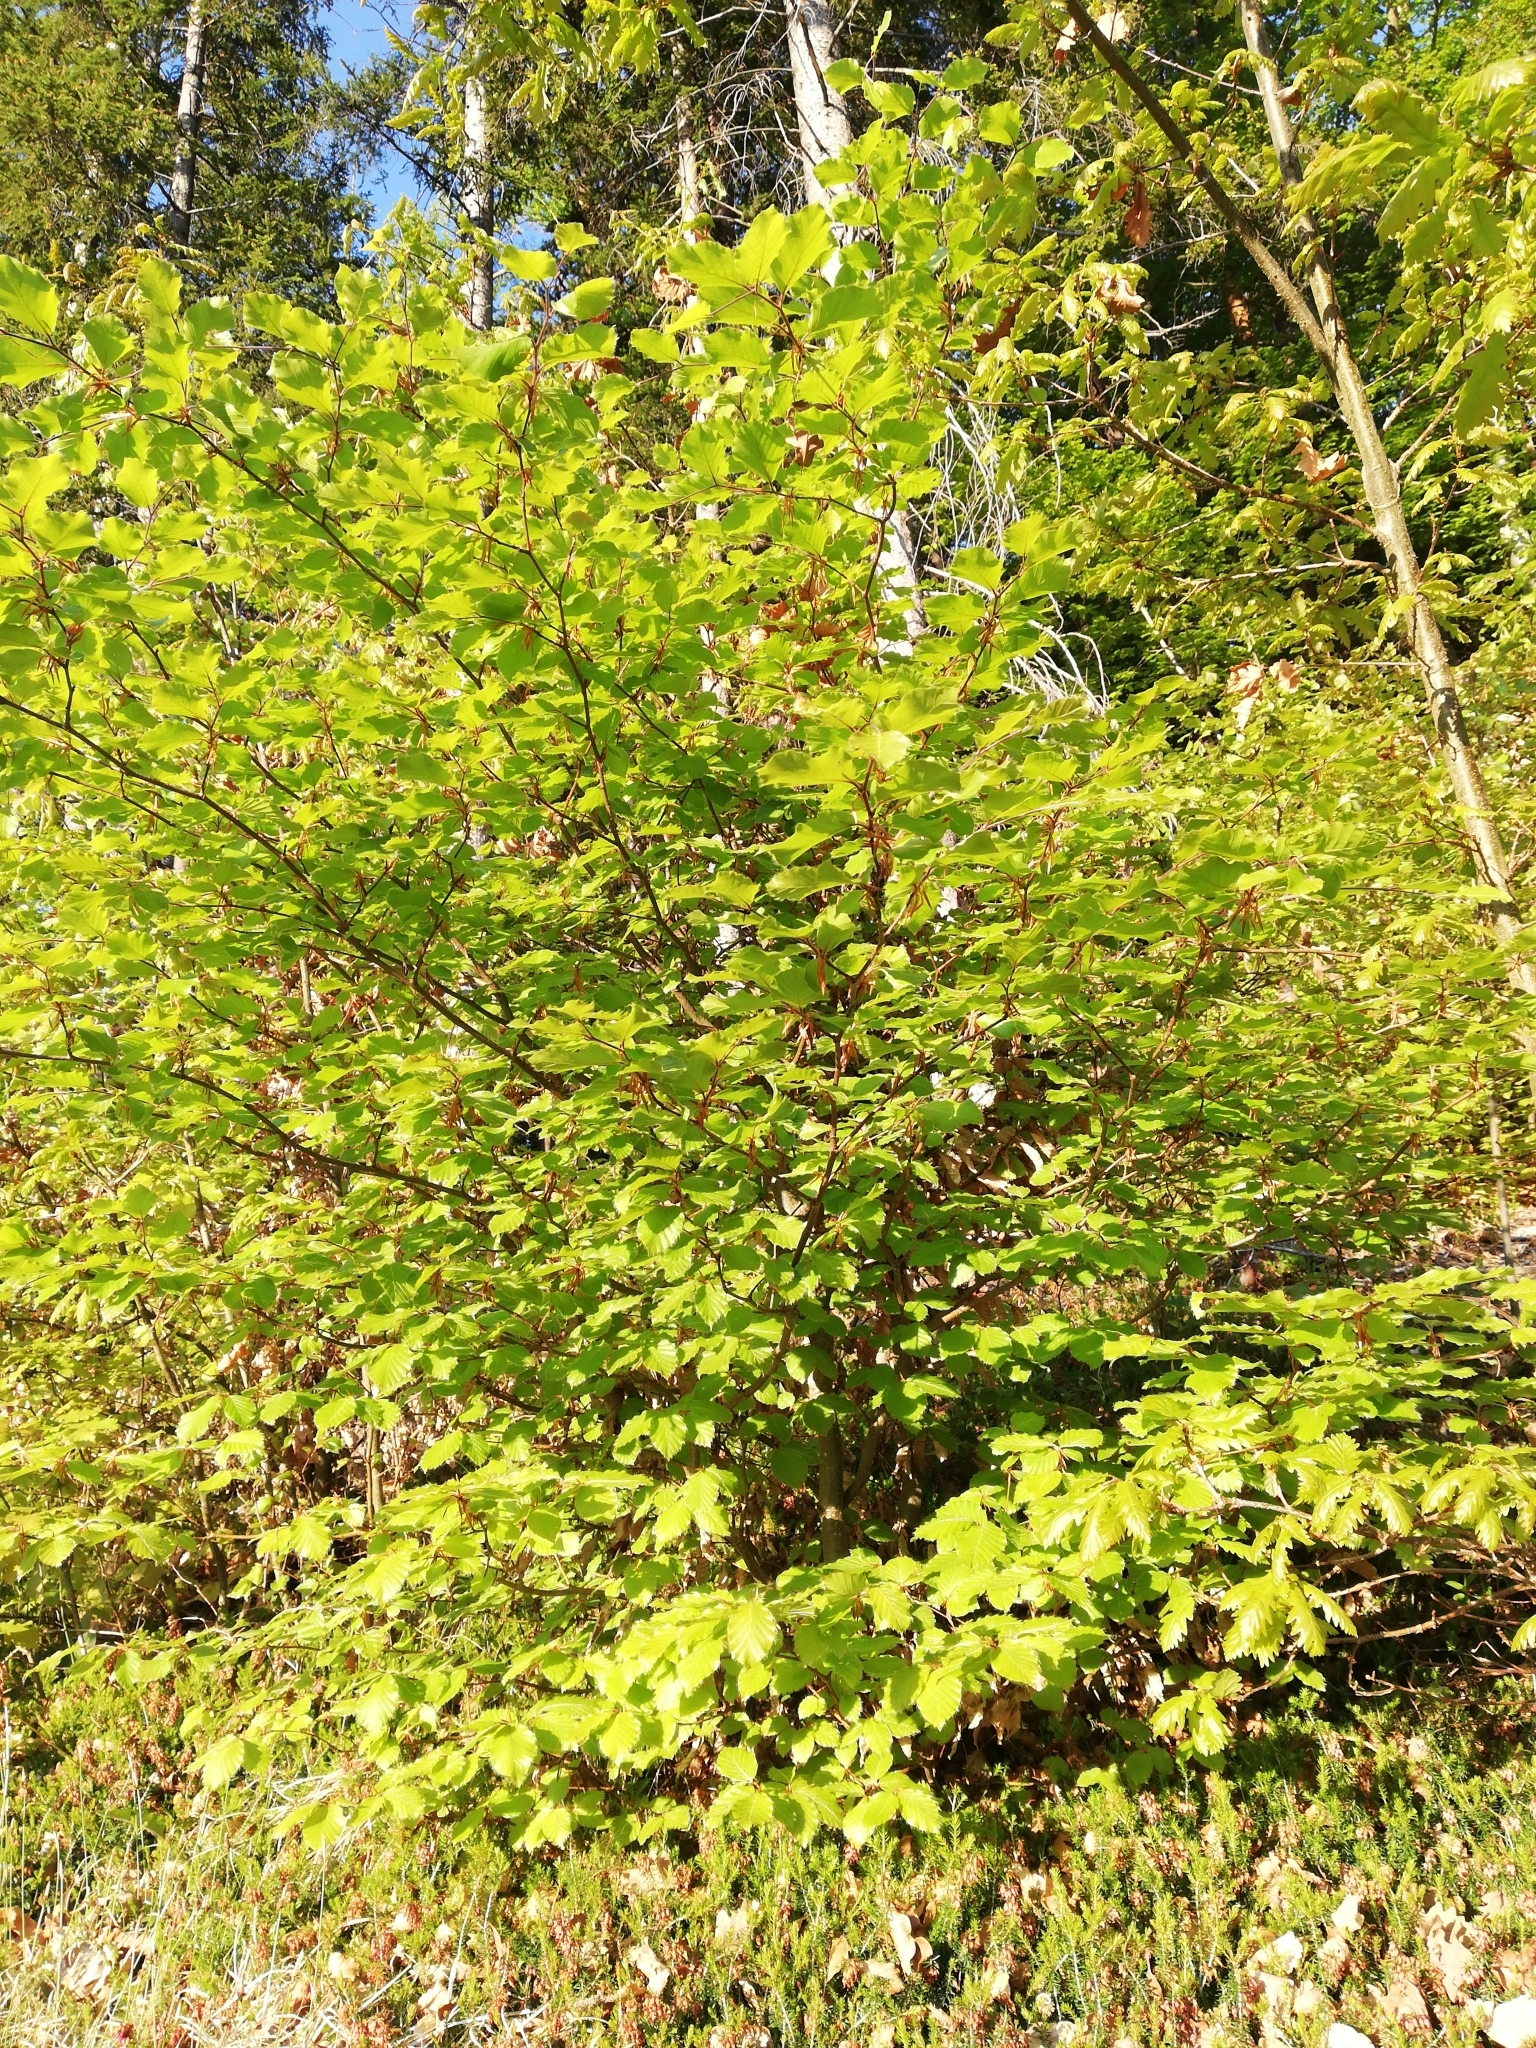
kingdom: Plantae
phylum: Tracheophyta
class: Magnoliopsida
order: Fagales
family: Fagaceae
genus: Fagus
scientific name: Fagus sylvatica
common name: Beech
